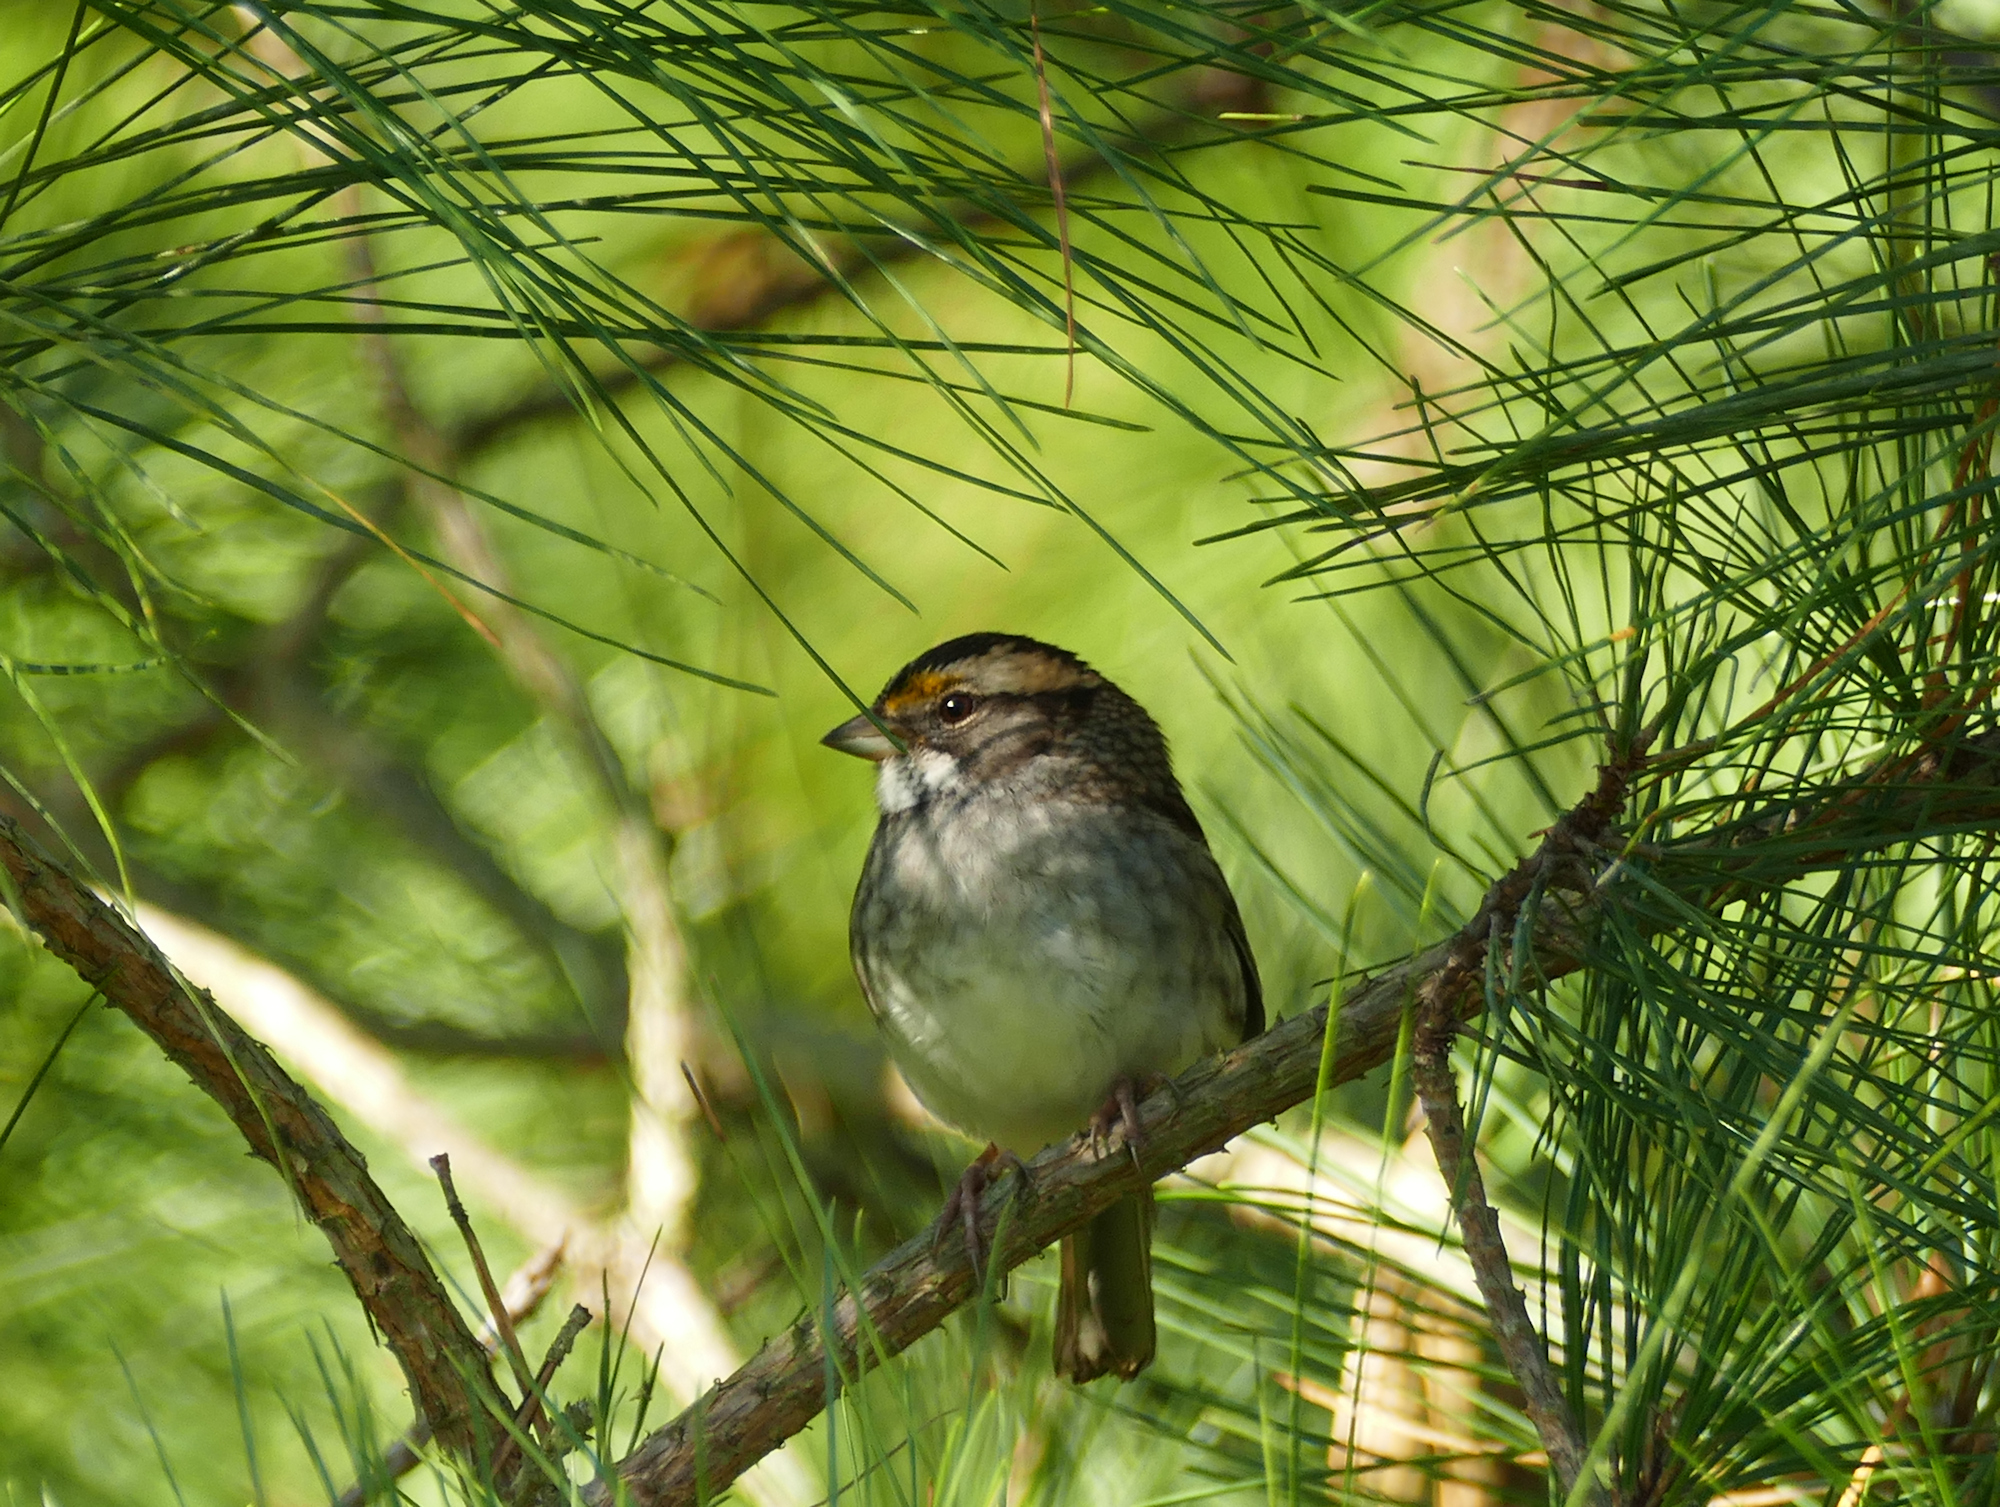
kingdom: Animalia
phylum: Chordata
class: Aves
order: Passeriformes
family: Passerellidae
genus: Zonotrichia
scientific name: Zonotrichia albicollis
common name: White-throated sparrow
